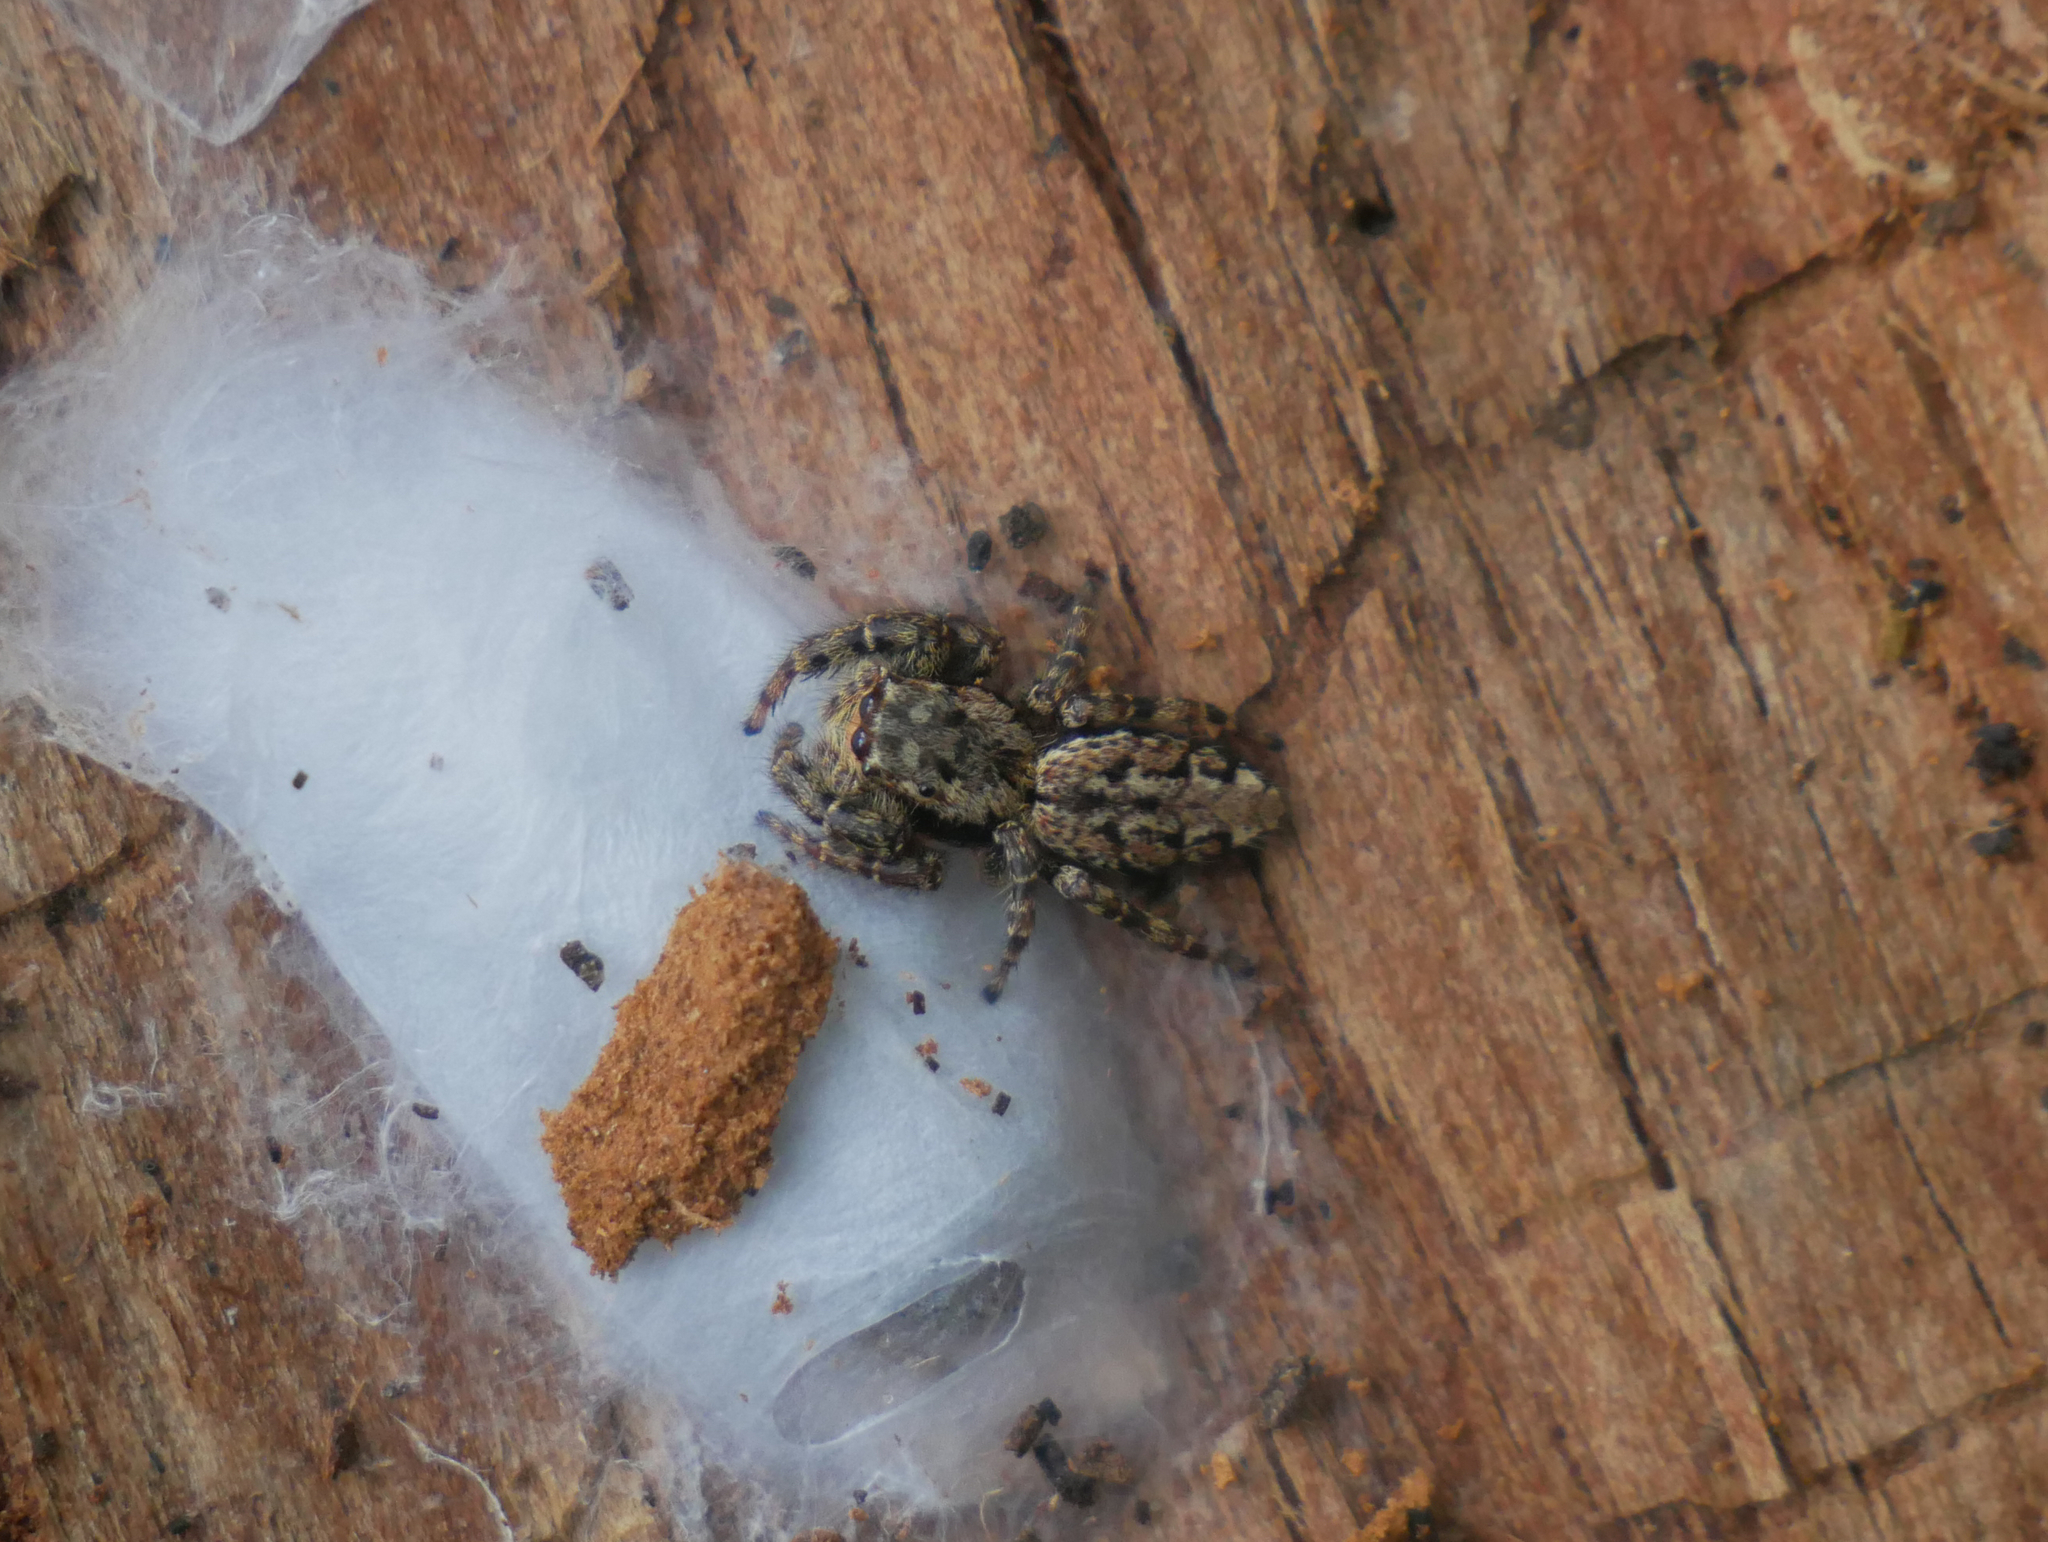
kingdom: Animalia
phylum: Arthropoda
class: Arachnida
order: Araneae
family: Salticidae
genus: Marpissa
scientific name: Marpissa muscosa
